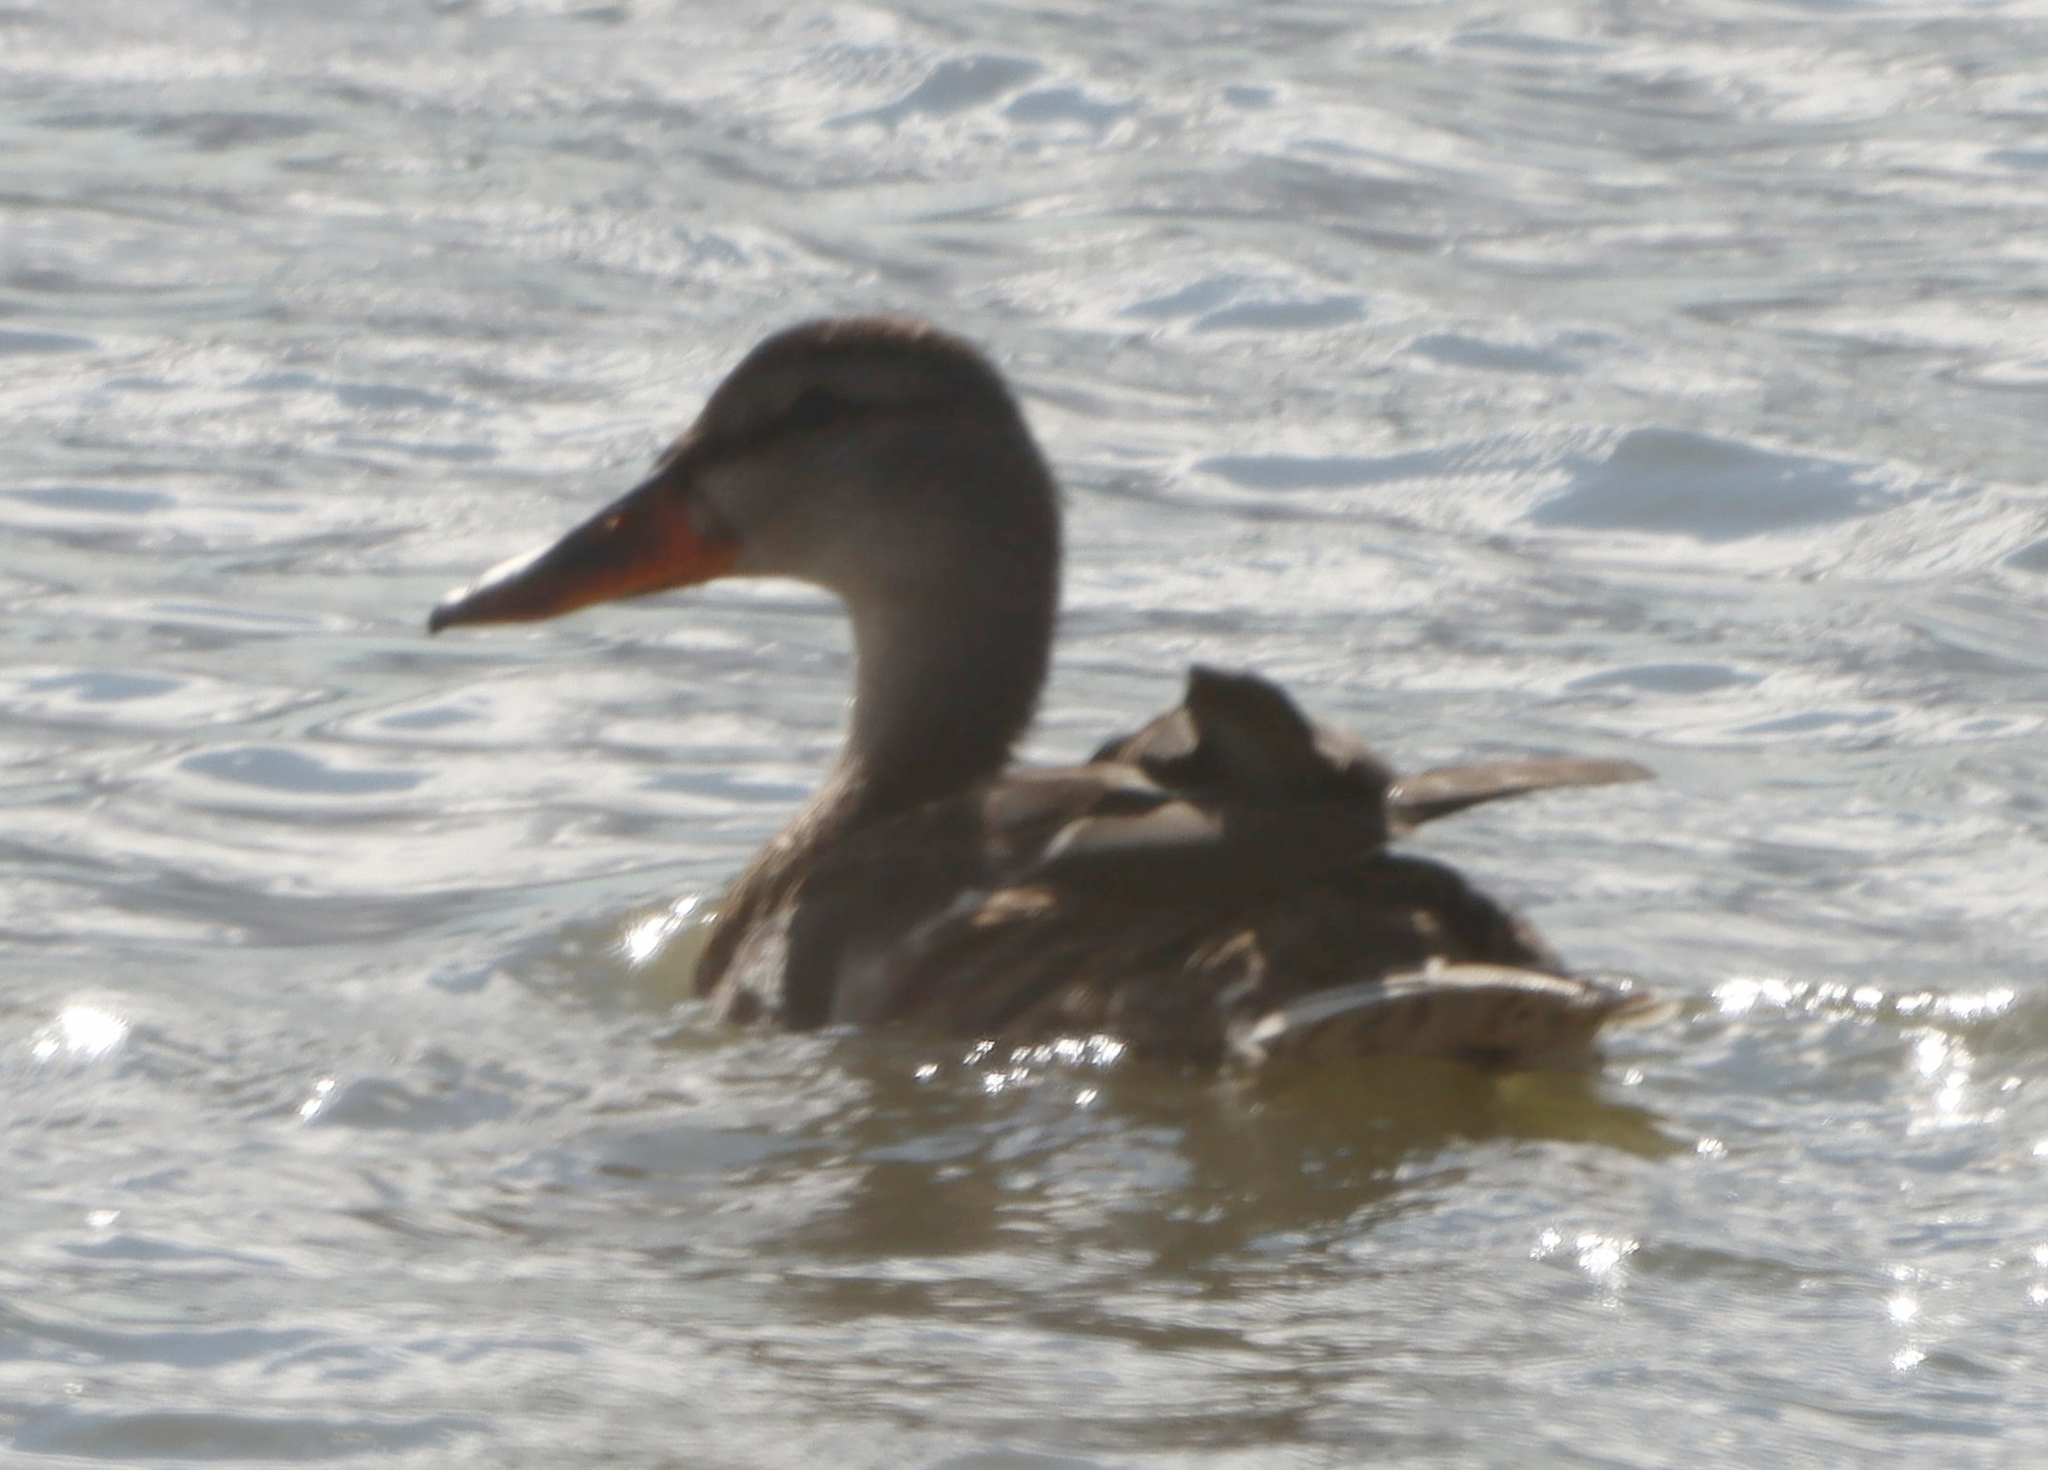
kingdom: Animalia
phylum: Chordata
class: Aves
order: Anseriformes
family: Anatidae
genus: Anas
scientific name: Anas platyrhynchos
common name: Mallard
